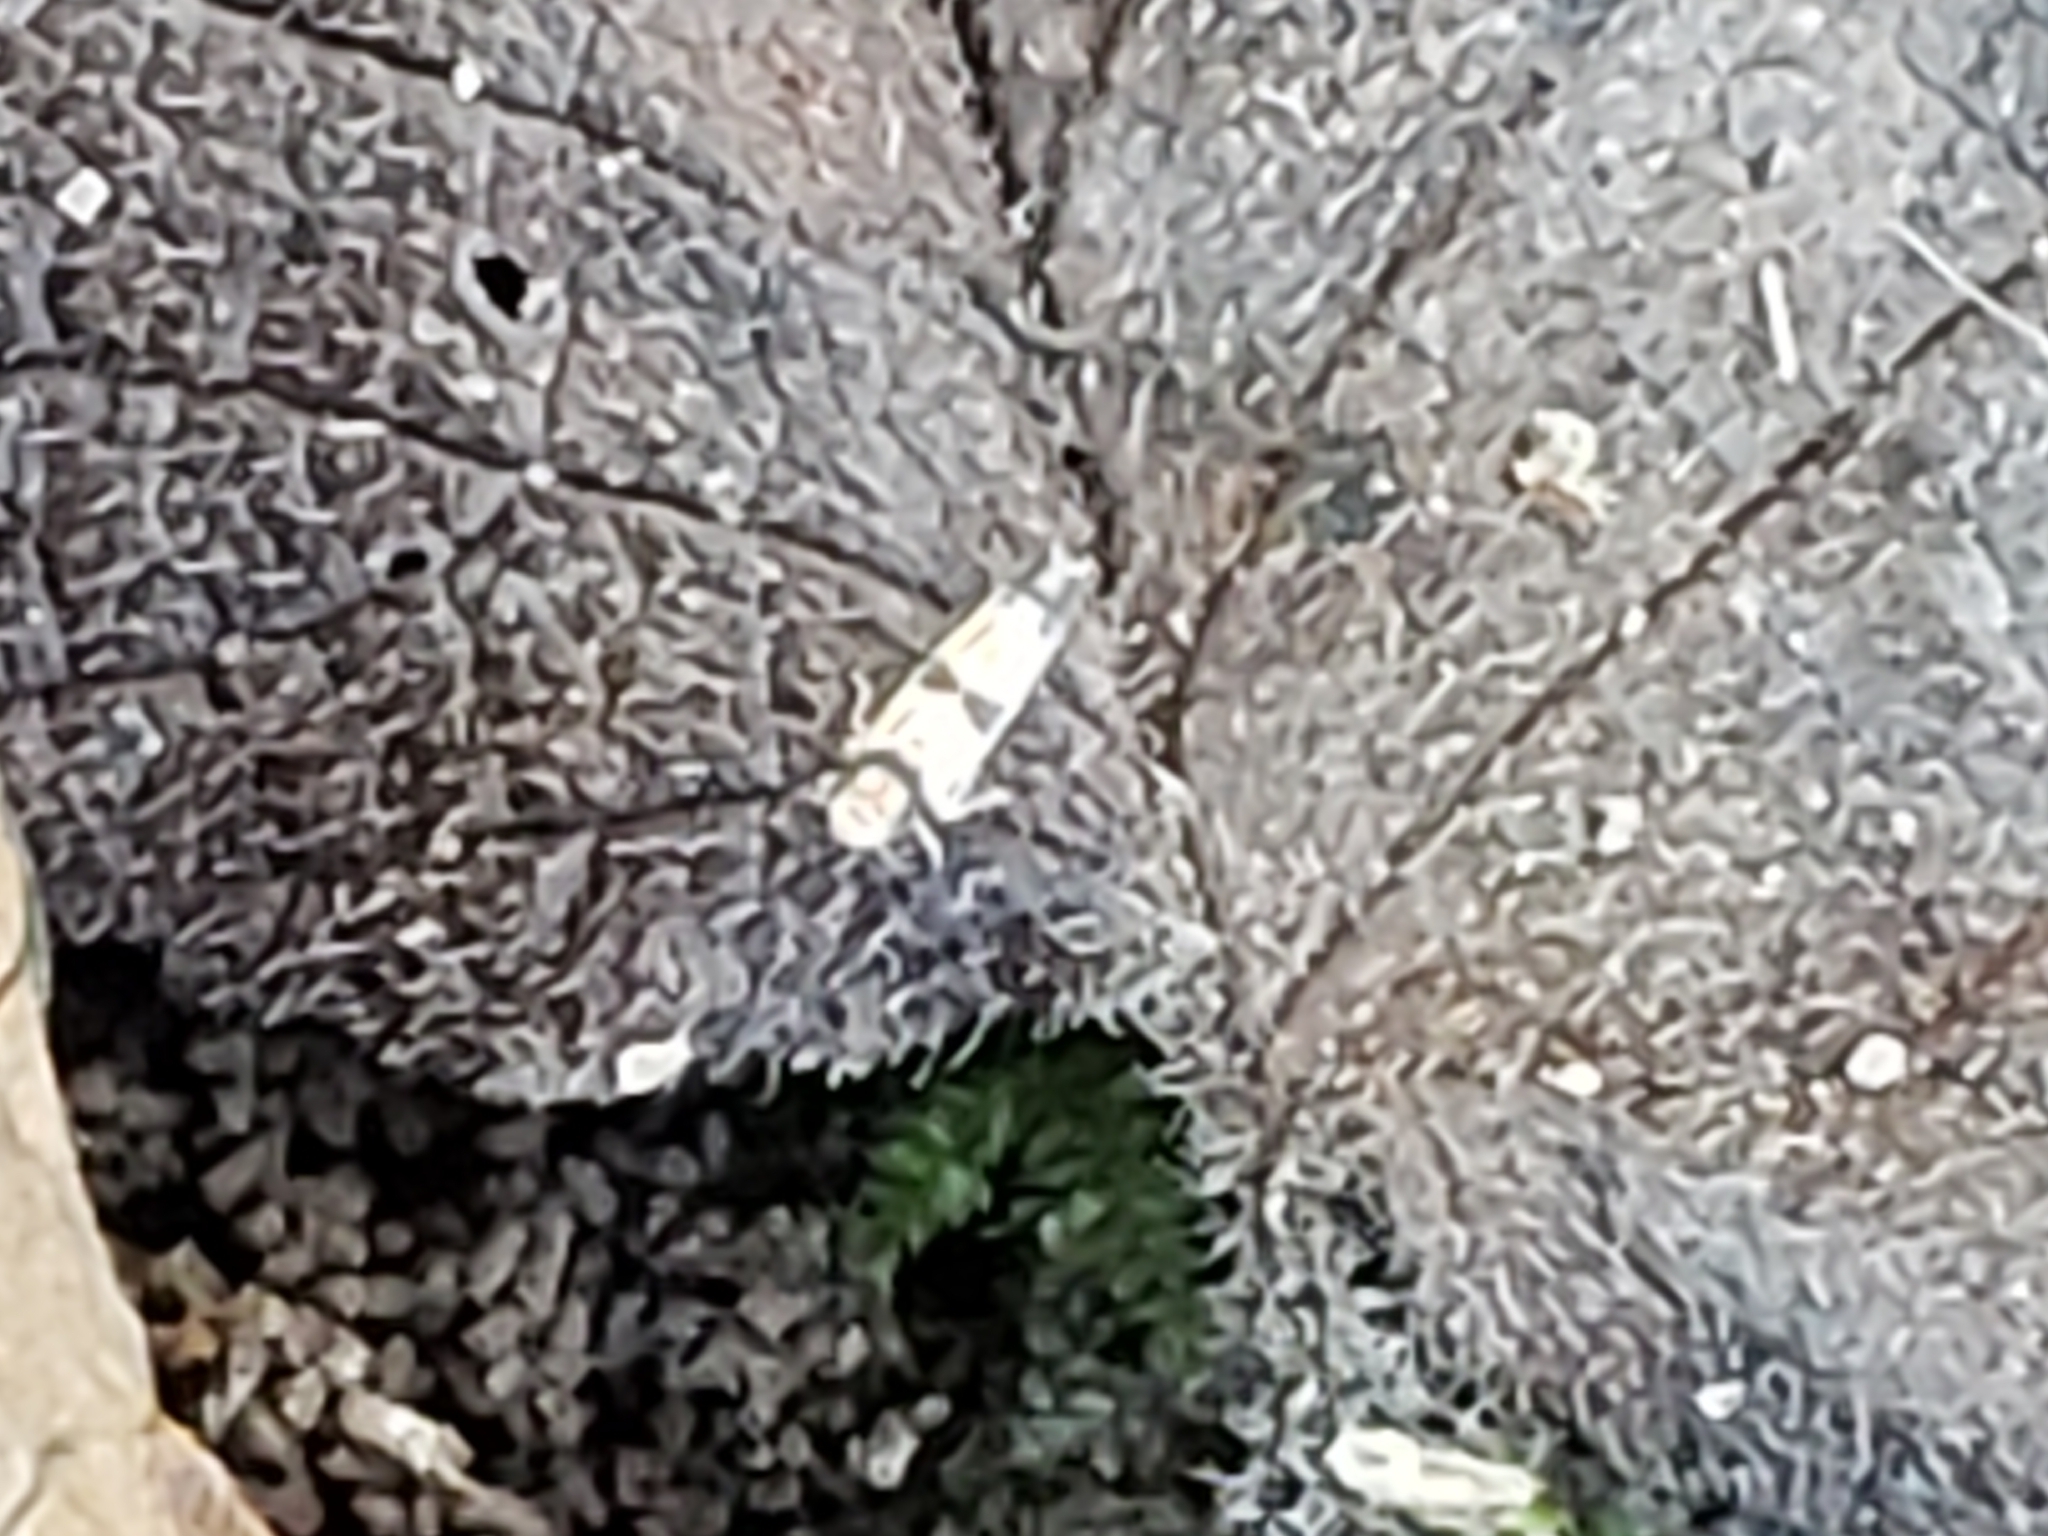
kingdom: Animalia
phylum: Arthropoda
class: Insecta
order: Hemiptera
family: Cicadellidae
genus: Erythroneura
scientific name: Erythroneura calycula
